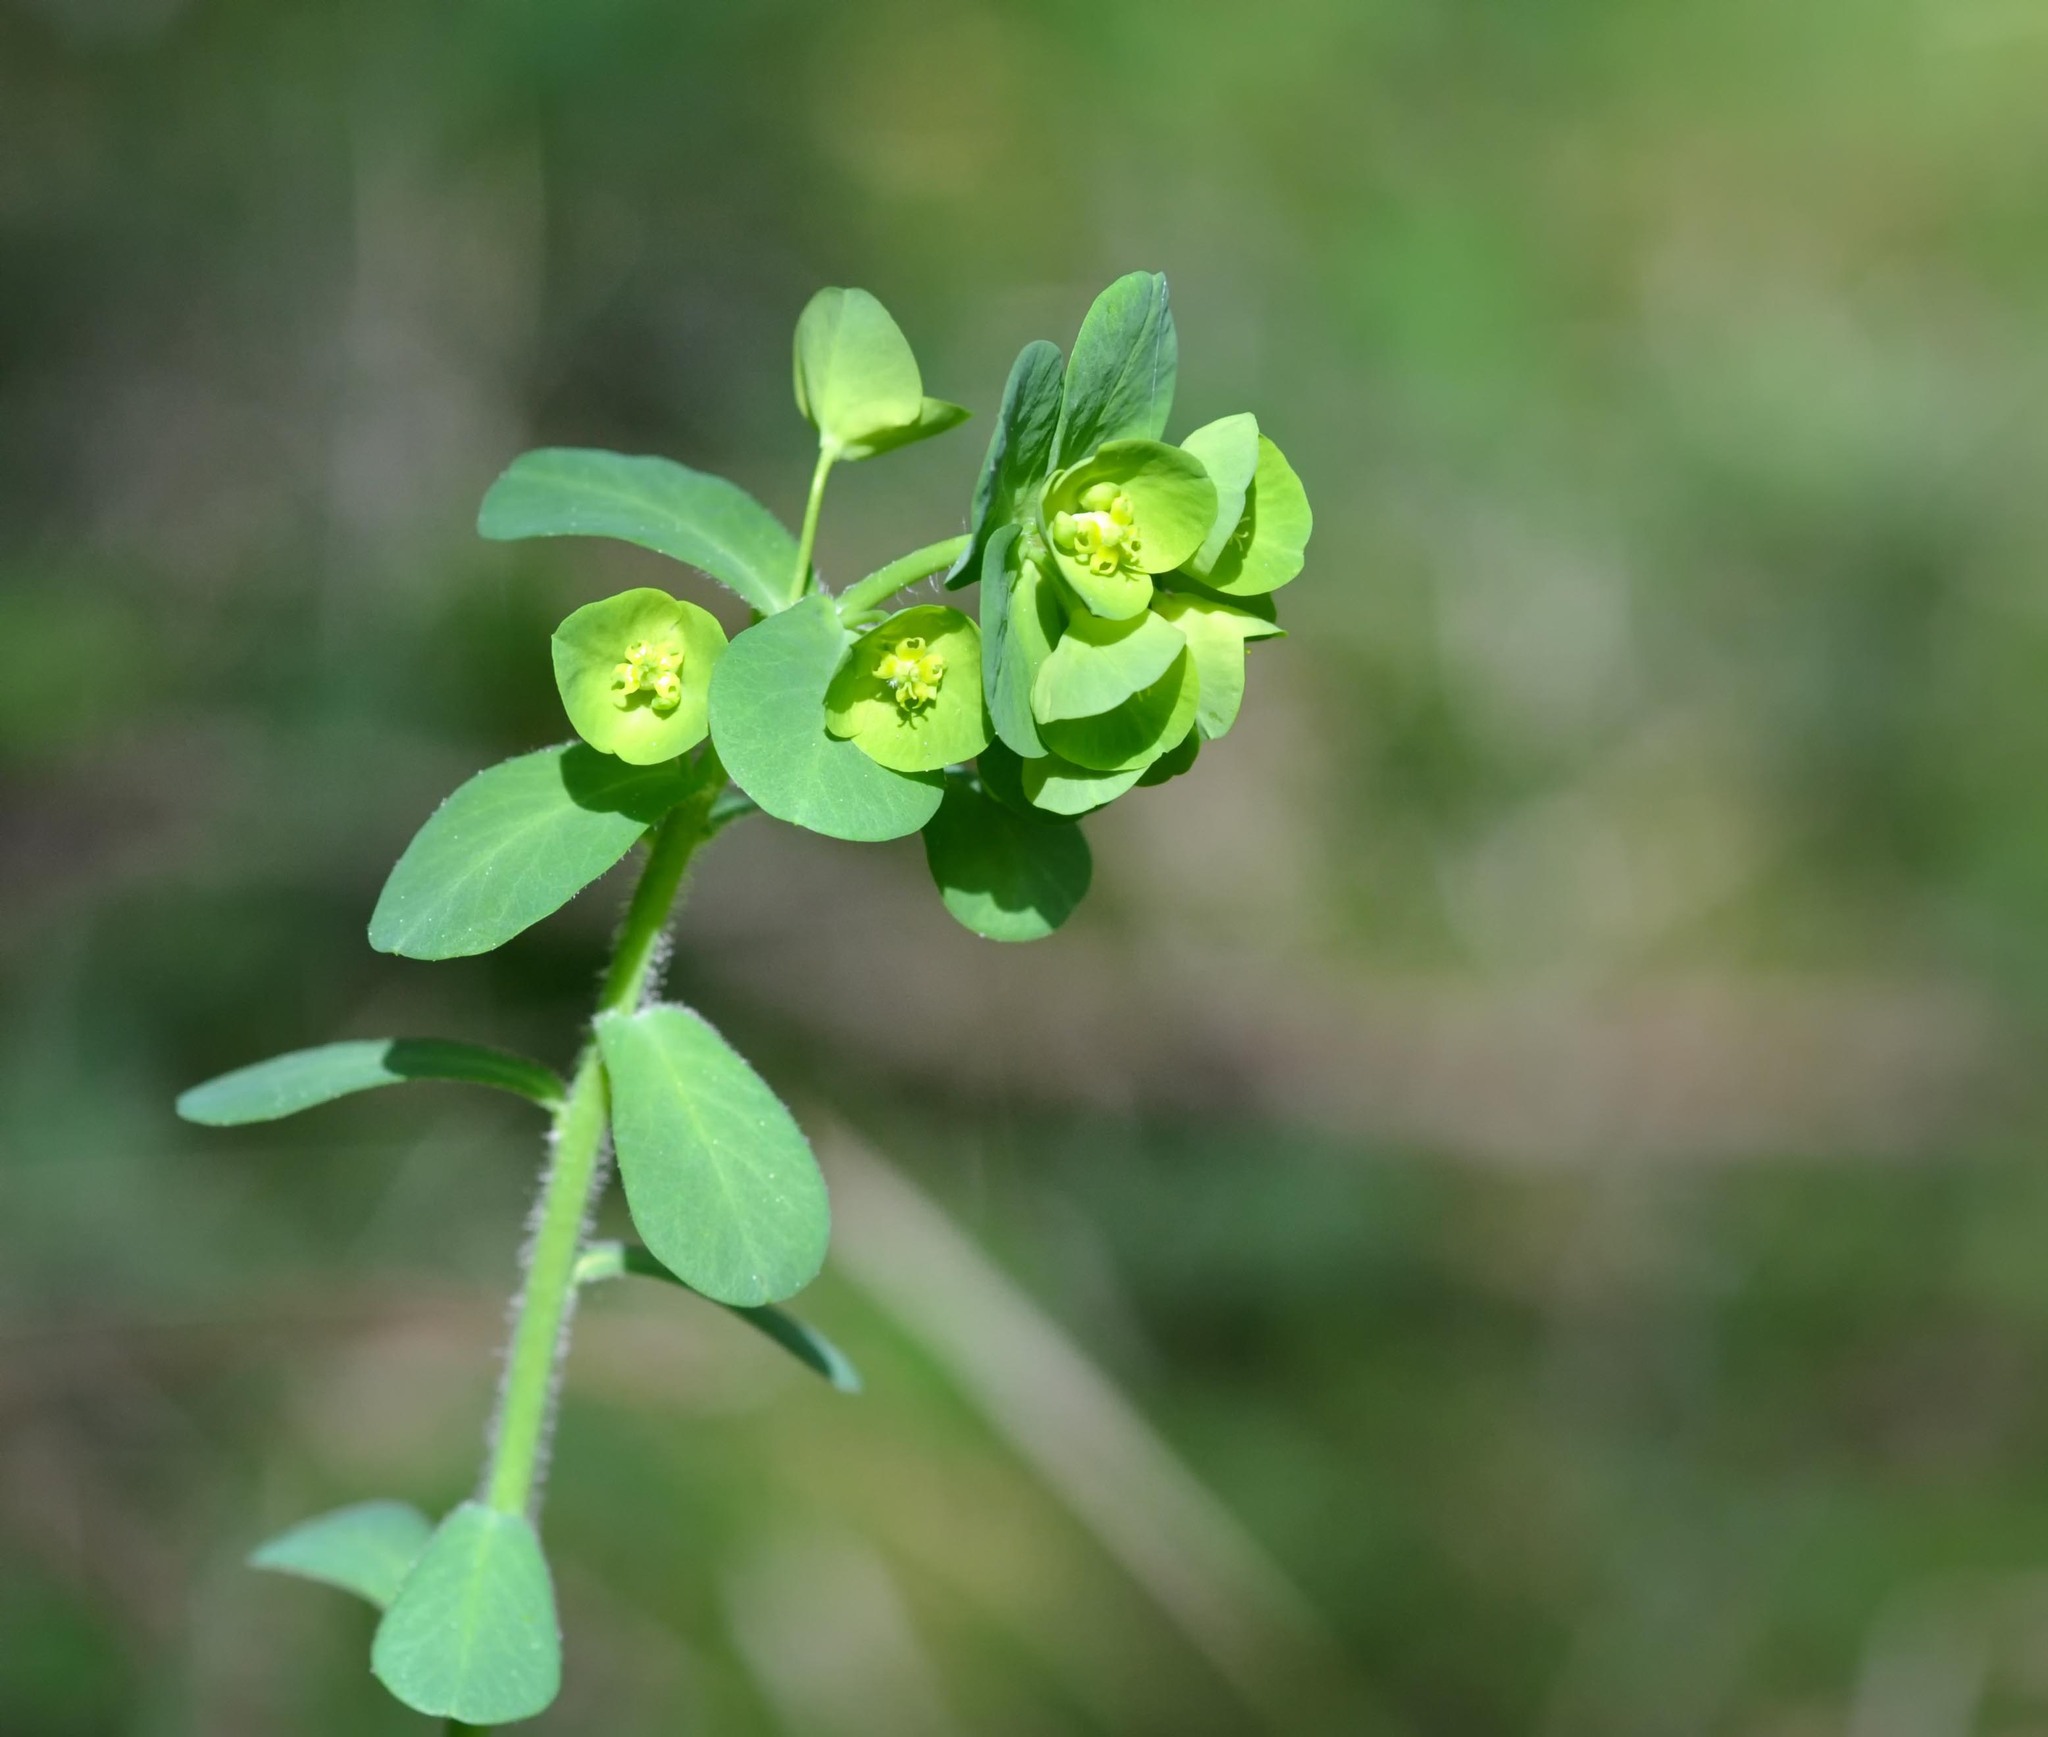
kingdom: Plantae
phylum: Tracheophyta
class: Magnoliopsida
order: Malpighiales
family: Euphorbiaceae
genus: Euphorbia
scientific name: Euphorbia amygdaloides
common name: Wood spurge
